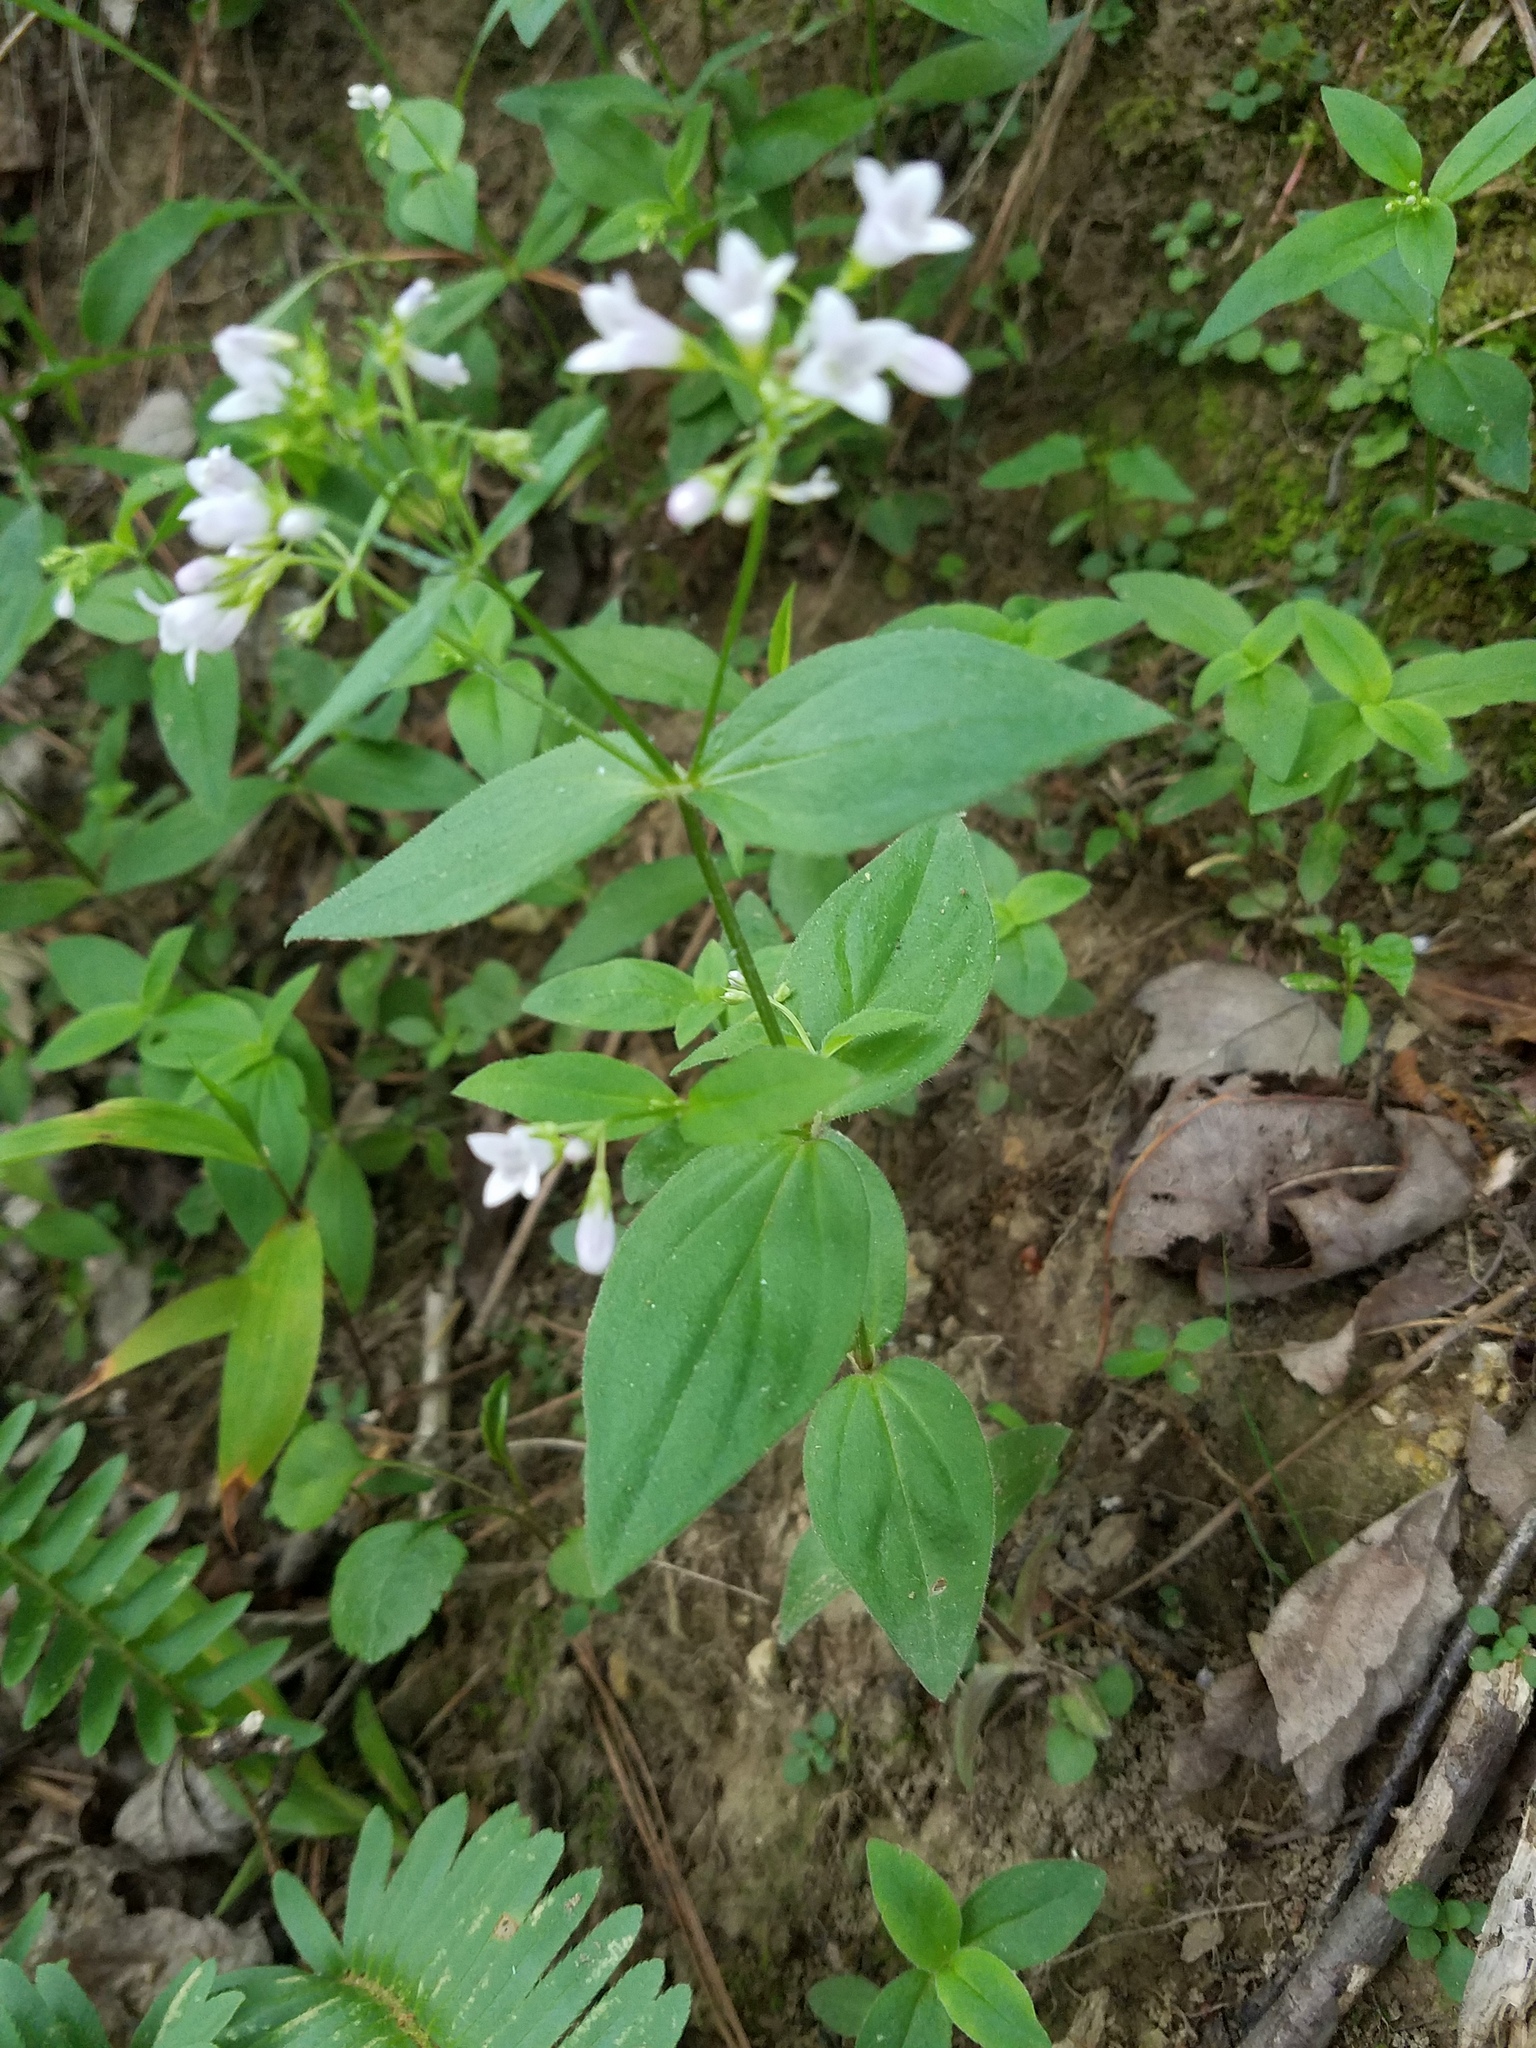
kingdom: Plantae
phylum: Tracheophyta
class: Magnoliopsida
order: Gentianales
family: Rubiaceae
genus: Houstonia
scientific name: Houstonia purpurea
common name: Summer bluet
